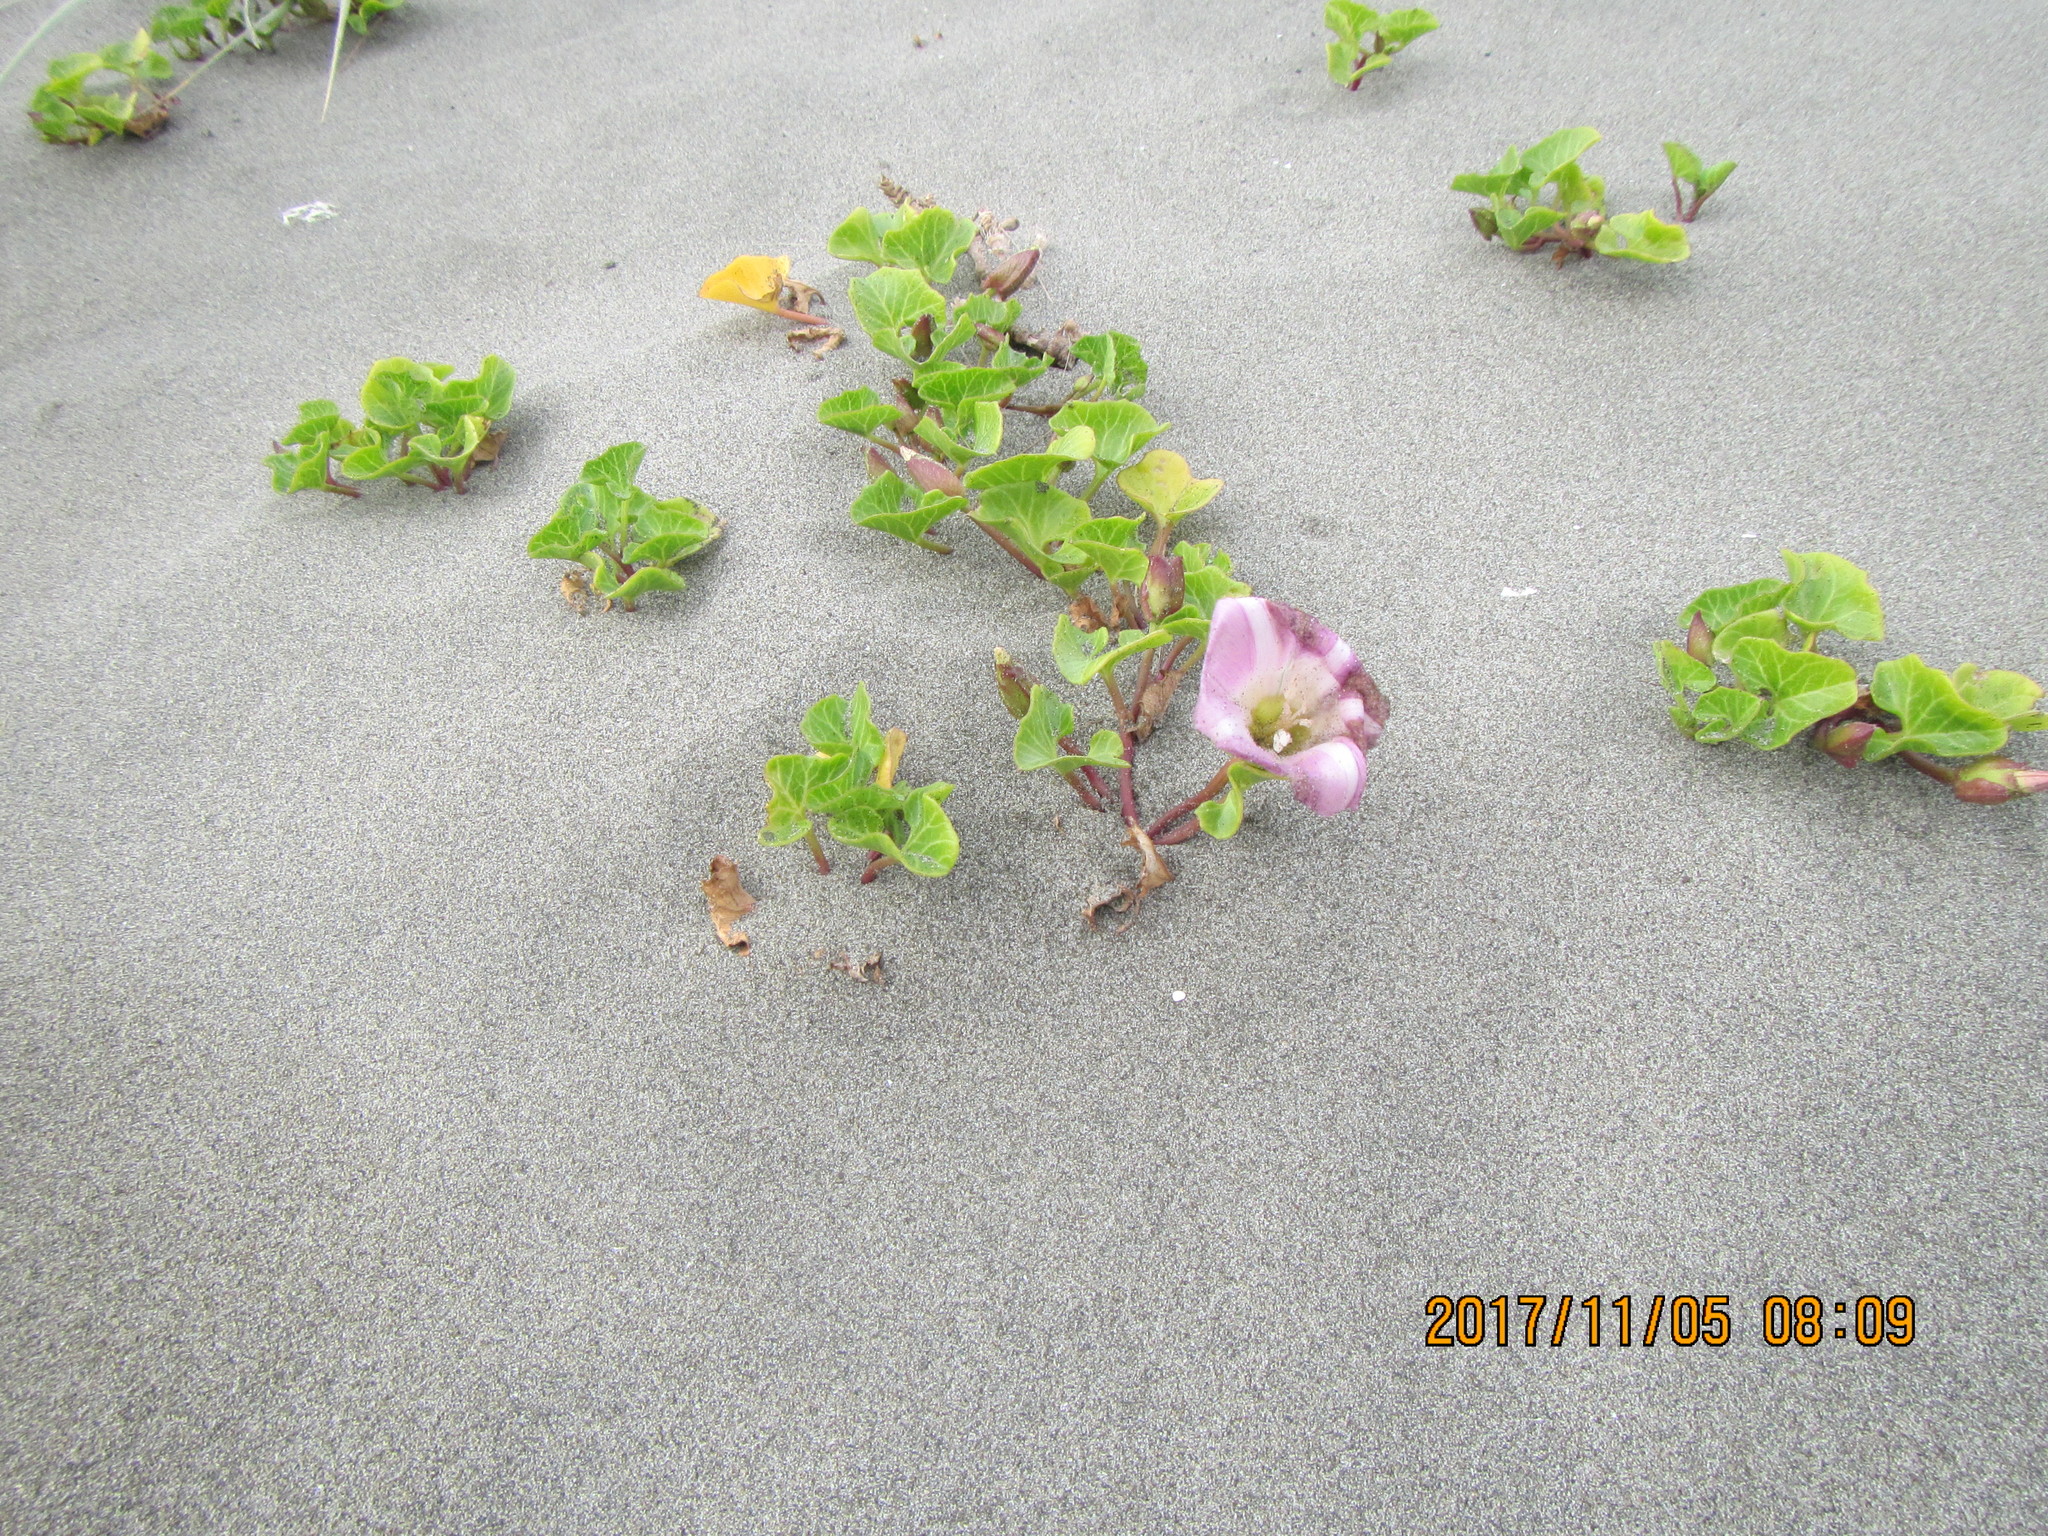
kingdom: Plantae
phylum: Tracheophyta
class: Magnoliopsida
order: Solanales
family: Convolvulaceae
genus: Calystegia
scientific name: Calystegia soldanella
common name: Sea bindweed
